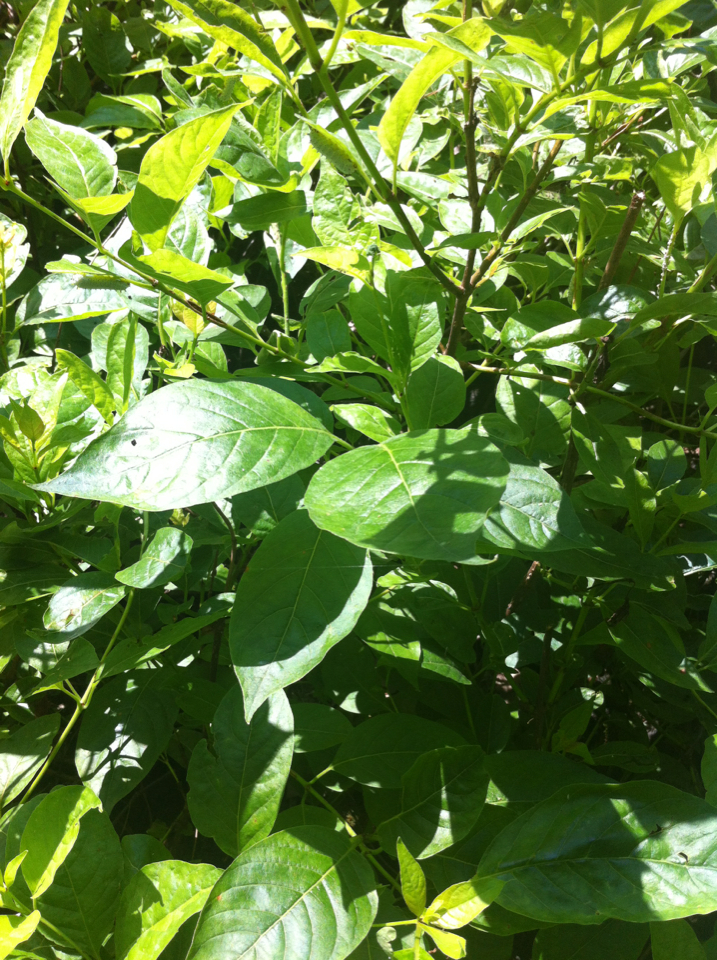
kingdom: Plantae
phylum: Tracheophyta
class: Magnoliopsida
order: Gentianales
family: Rubiaceae
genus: Cephalanthus
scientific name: Cephalanthus occidentalis
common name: Button-willow
